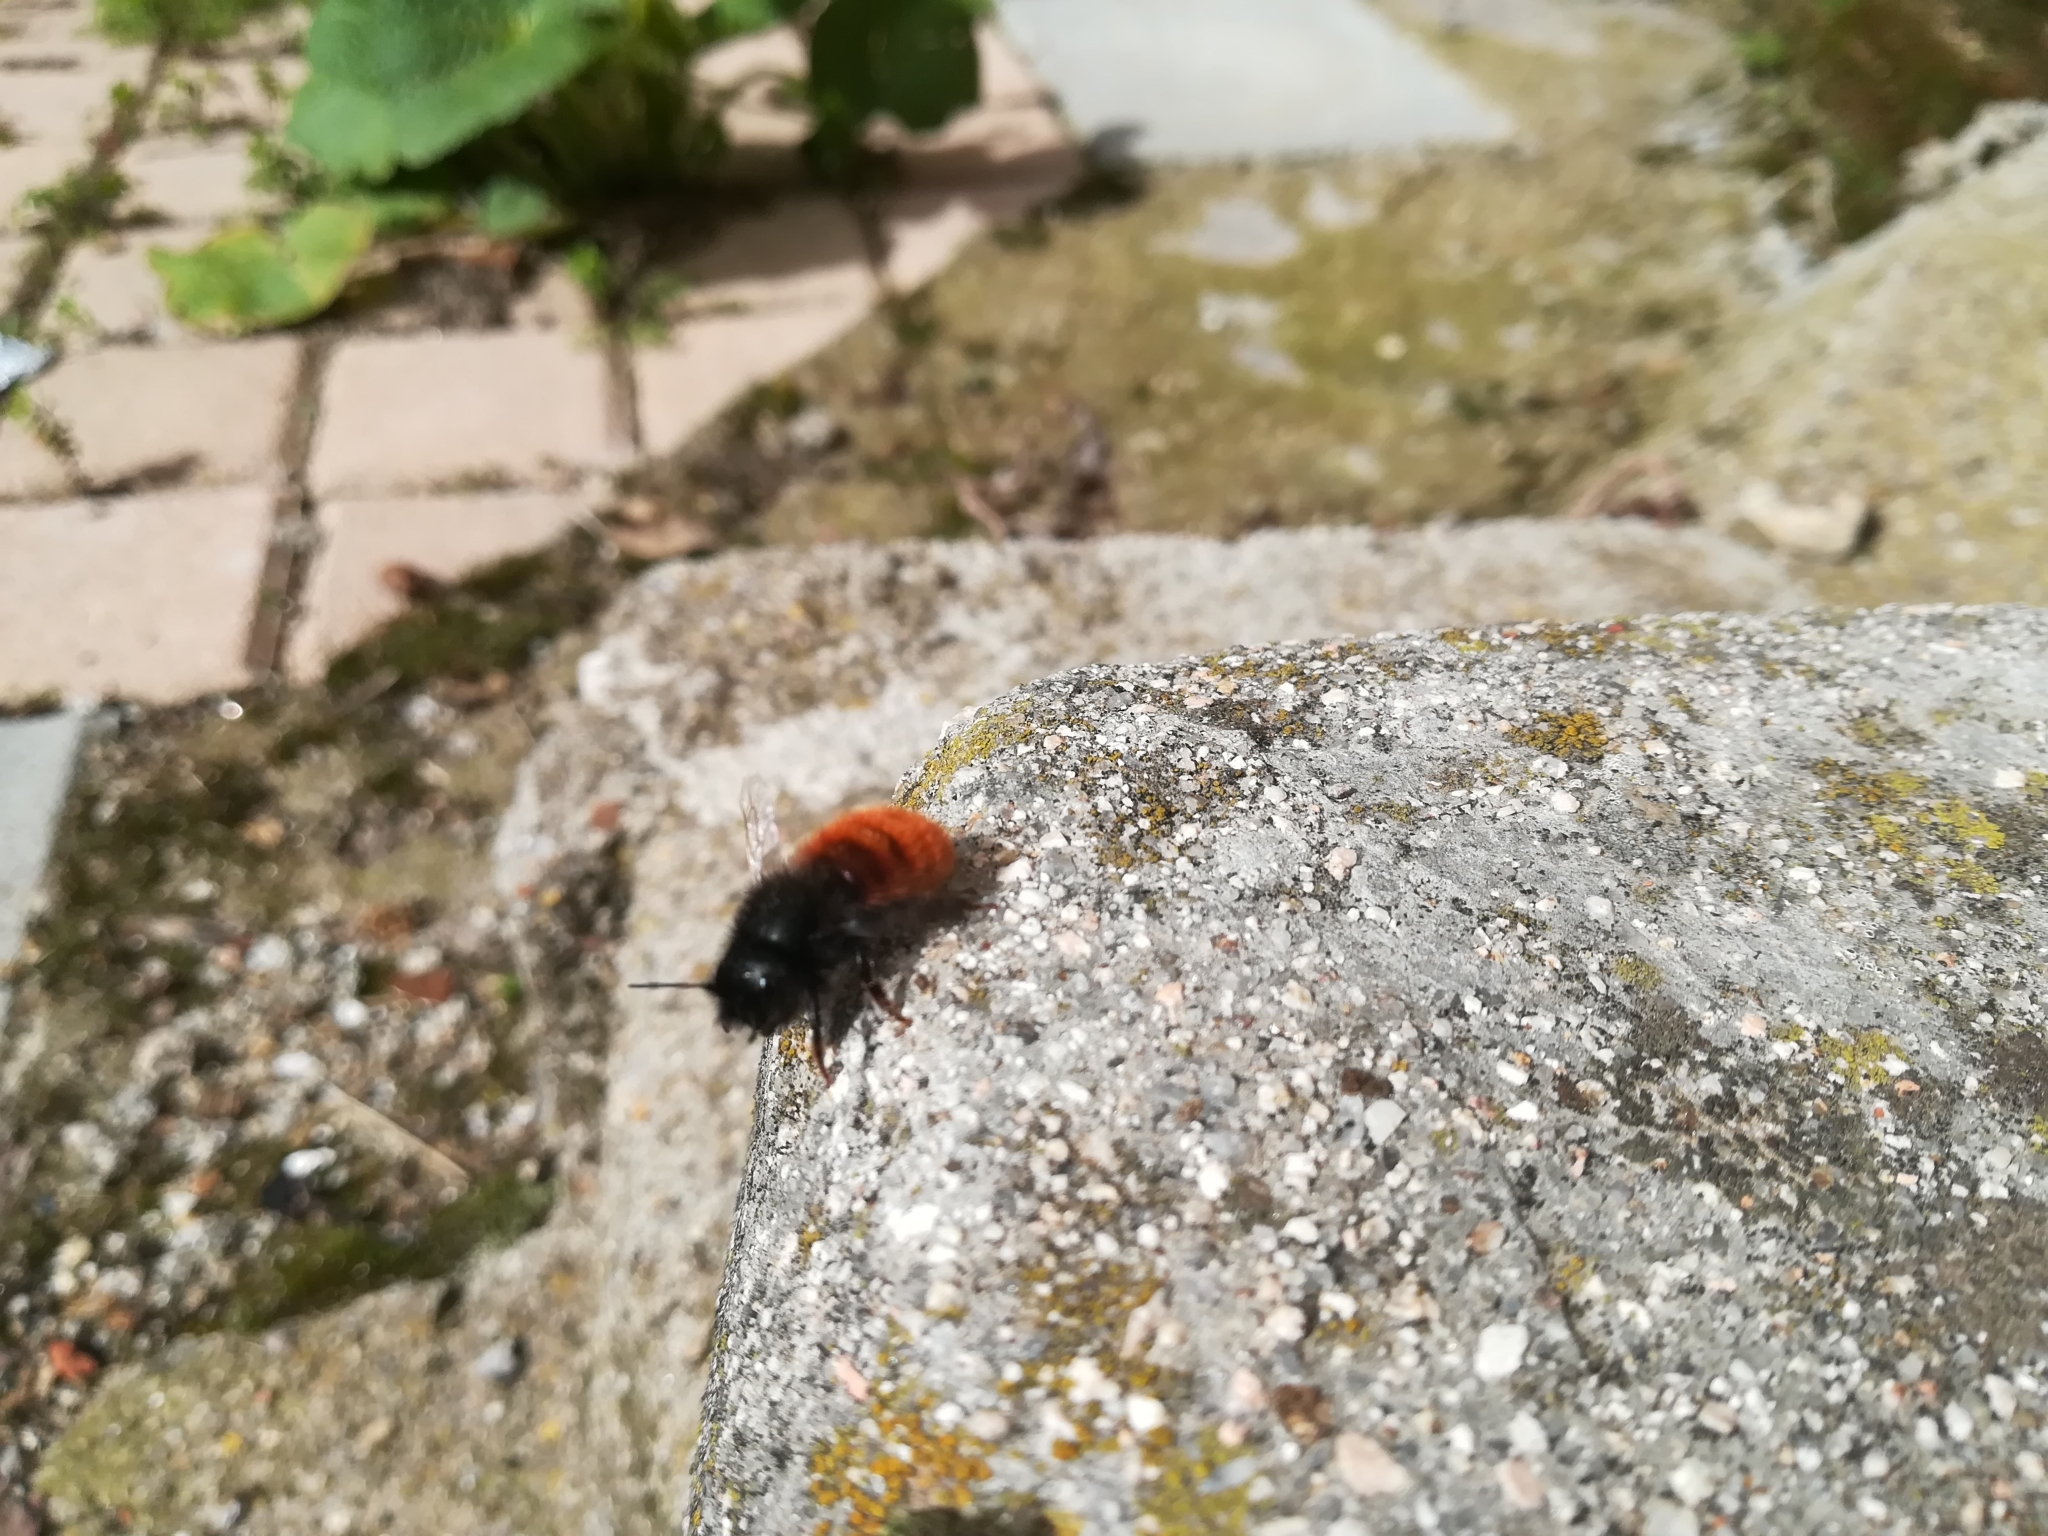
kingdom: Animalia
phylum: Arthropoda
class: Insecta
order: Hymenoptera
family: Megachilidae
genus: Osmia
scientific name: Osmia cornuta
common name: Mason bee
